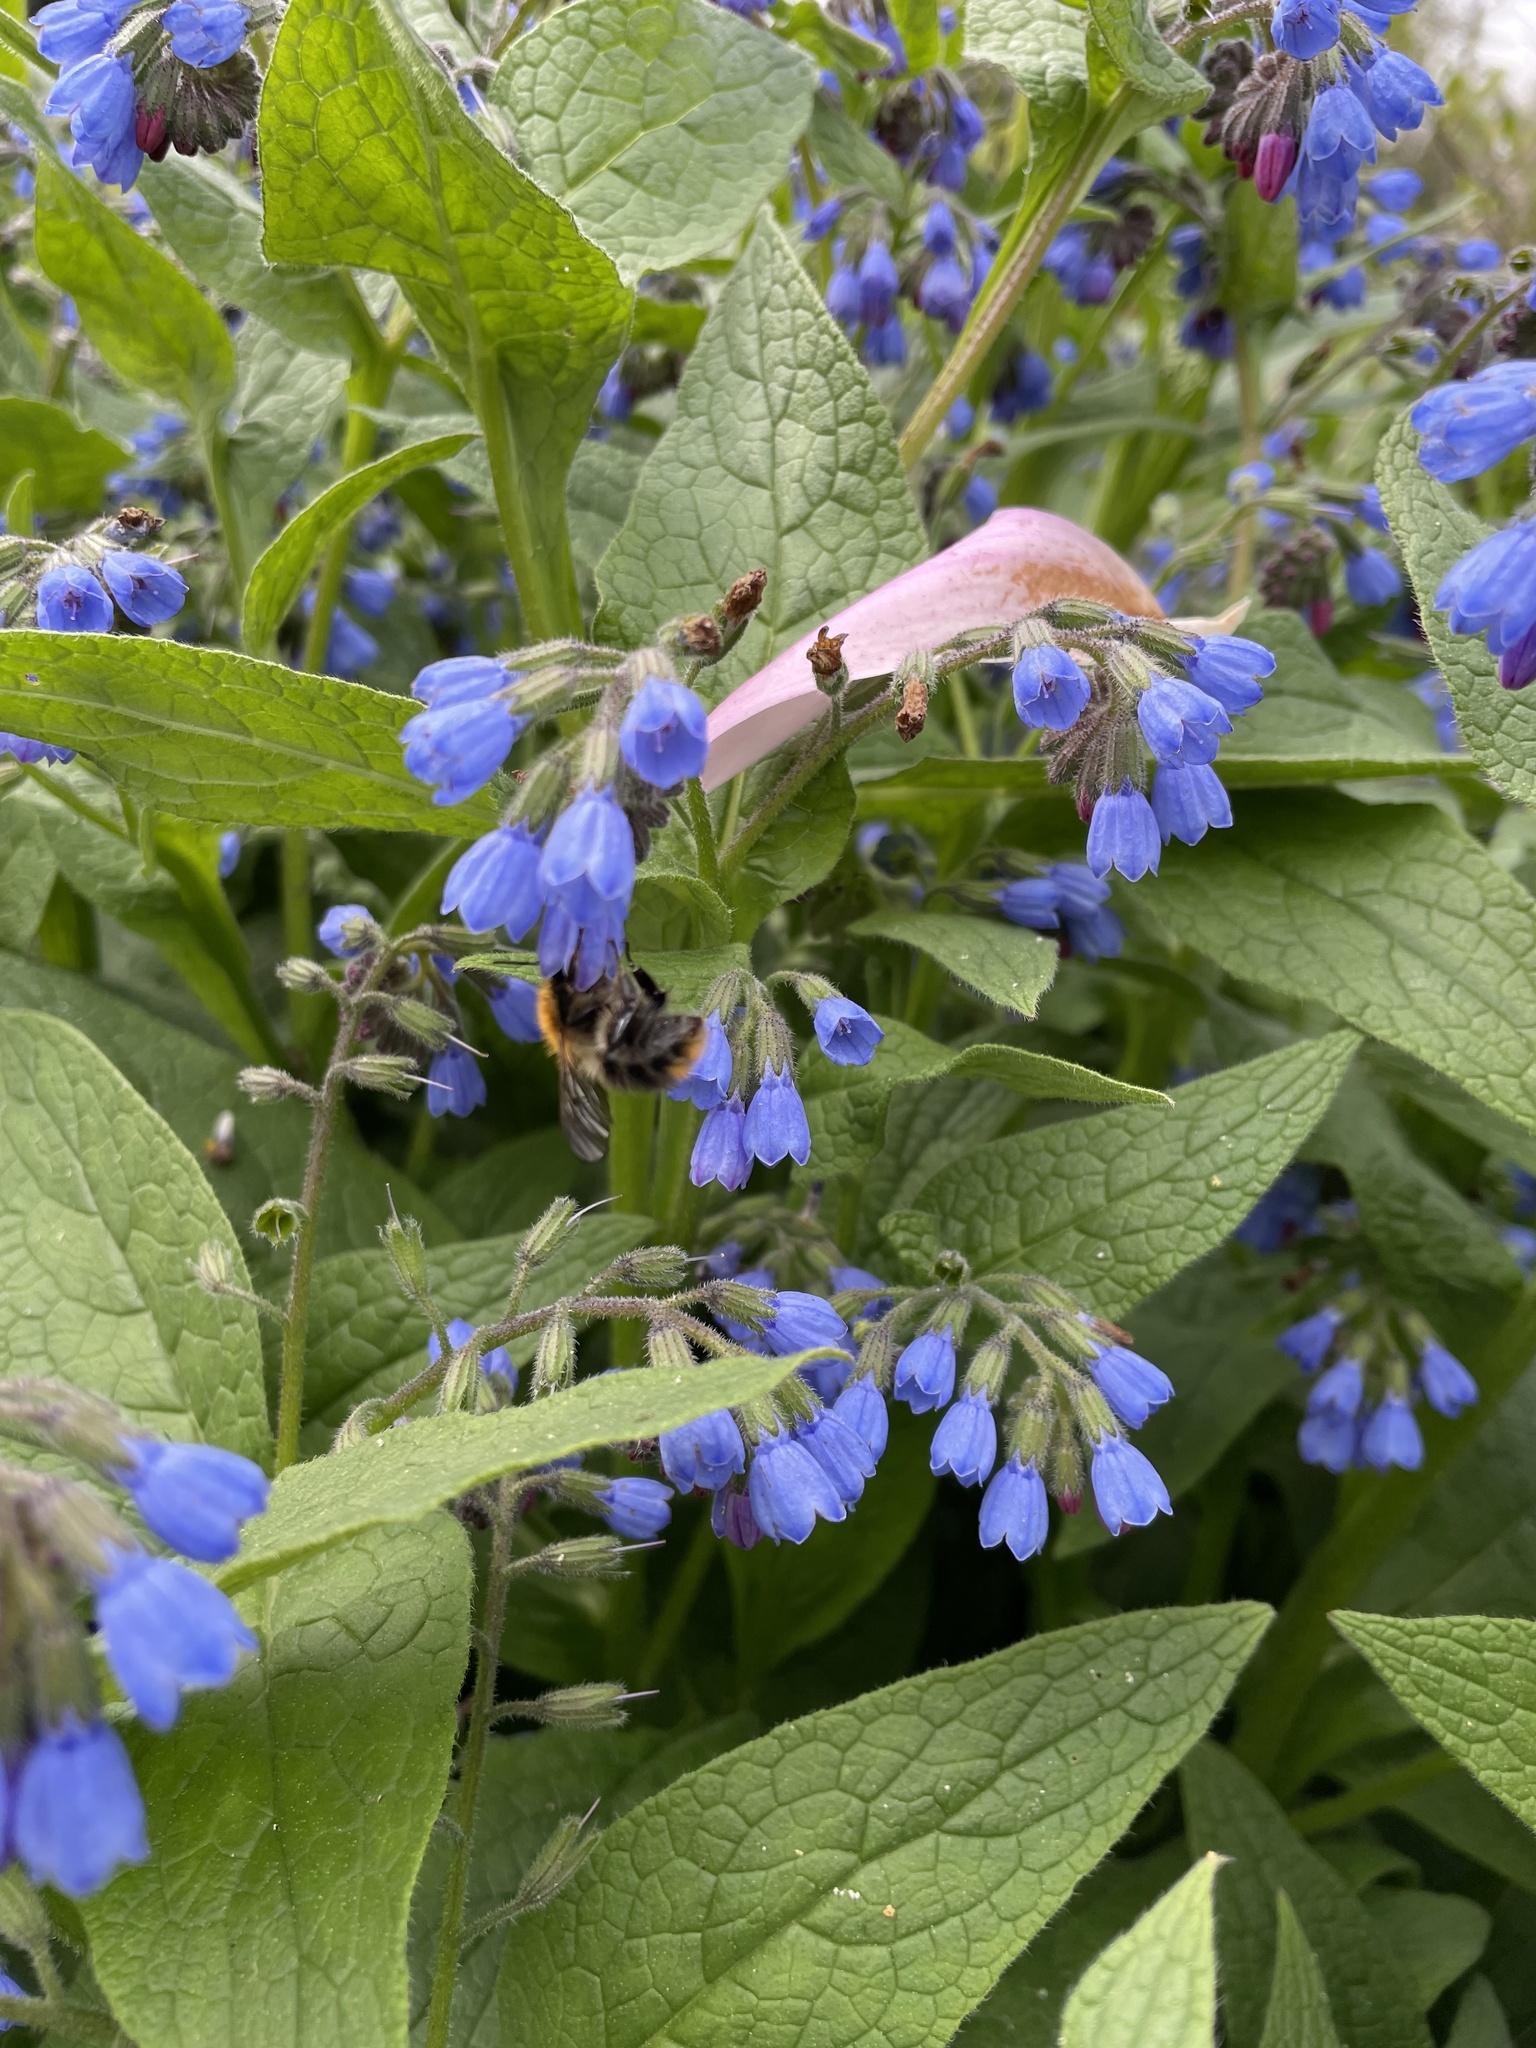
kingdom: Animalia
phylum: Arthropoda
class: Insecta
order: Hymenoptera
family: Apidae
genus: Bombus
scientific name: Bombus pascuorum
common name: Common carder bee
